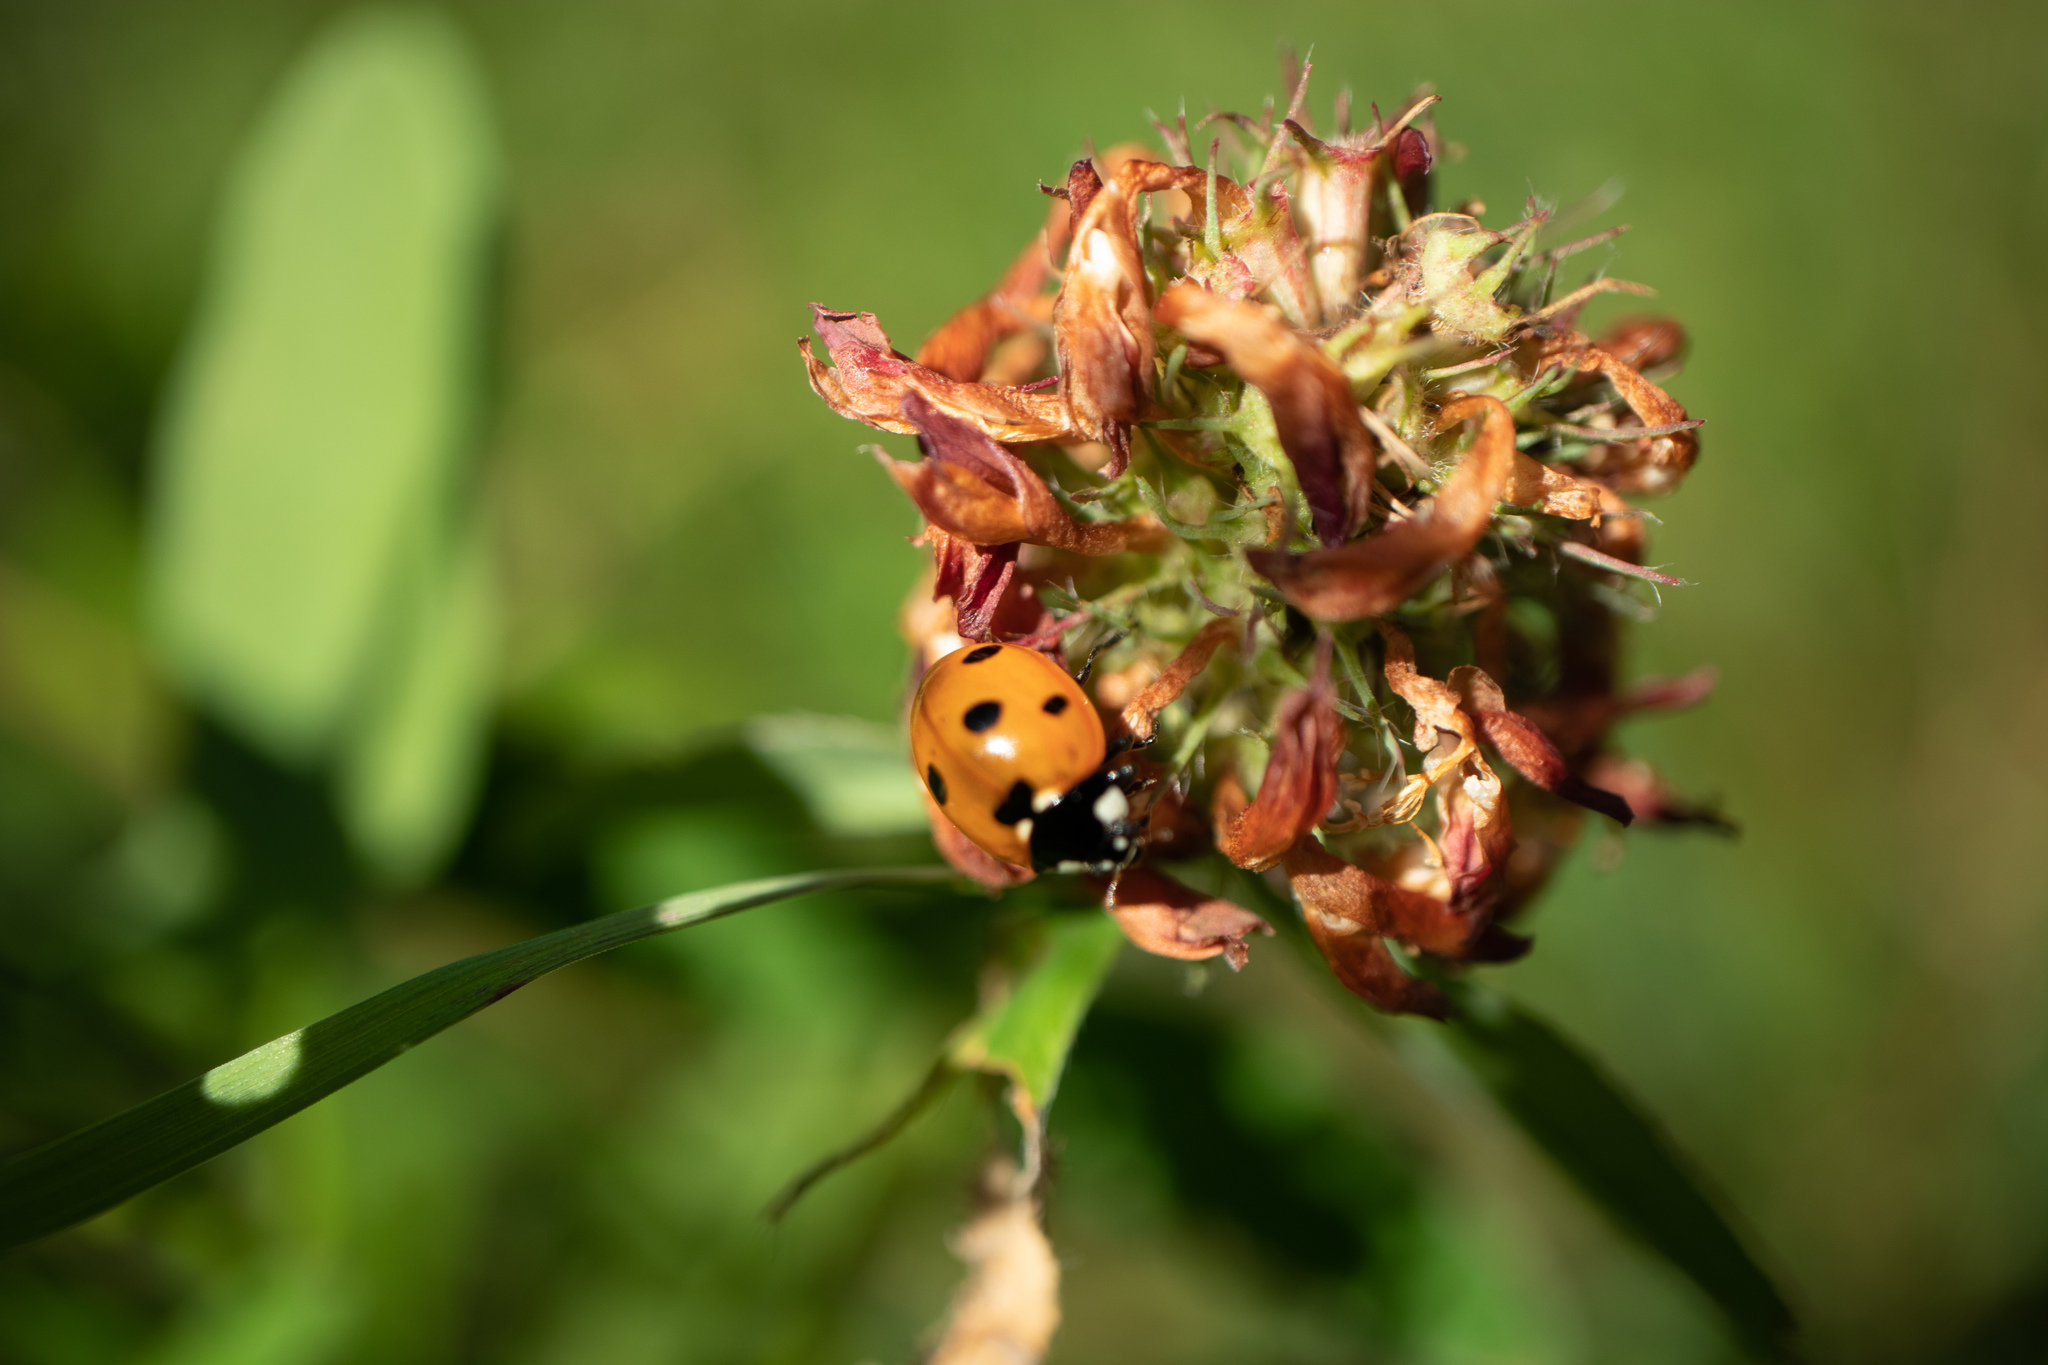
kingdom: Animalia
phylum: Arthropoda
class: Insecta
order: Coleoptera
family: Coccinellidae
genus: Coccinella
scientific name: Coccinella septempunctata
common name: Sevenspotted lady beetle
